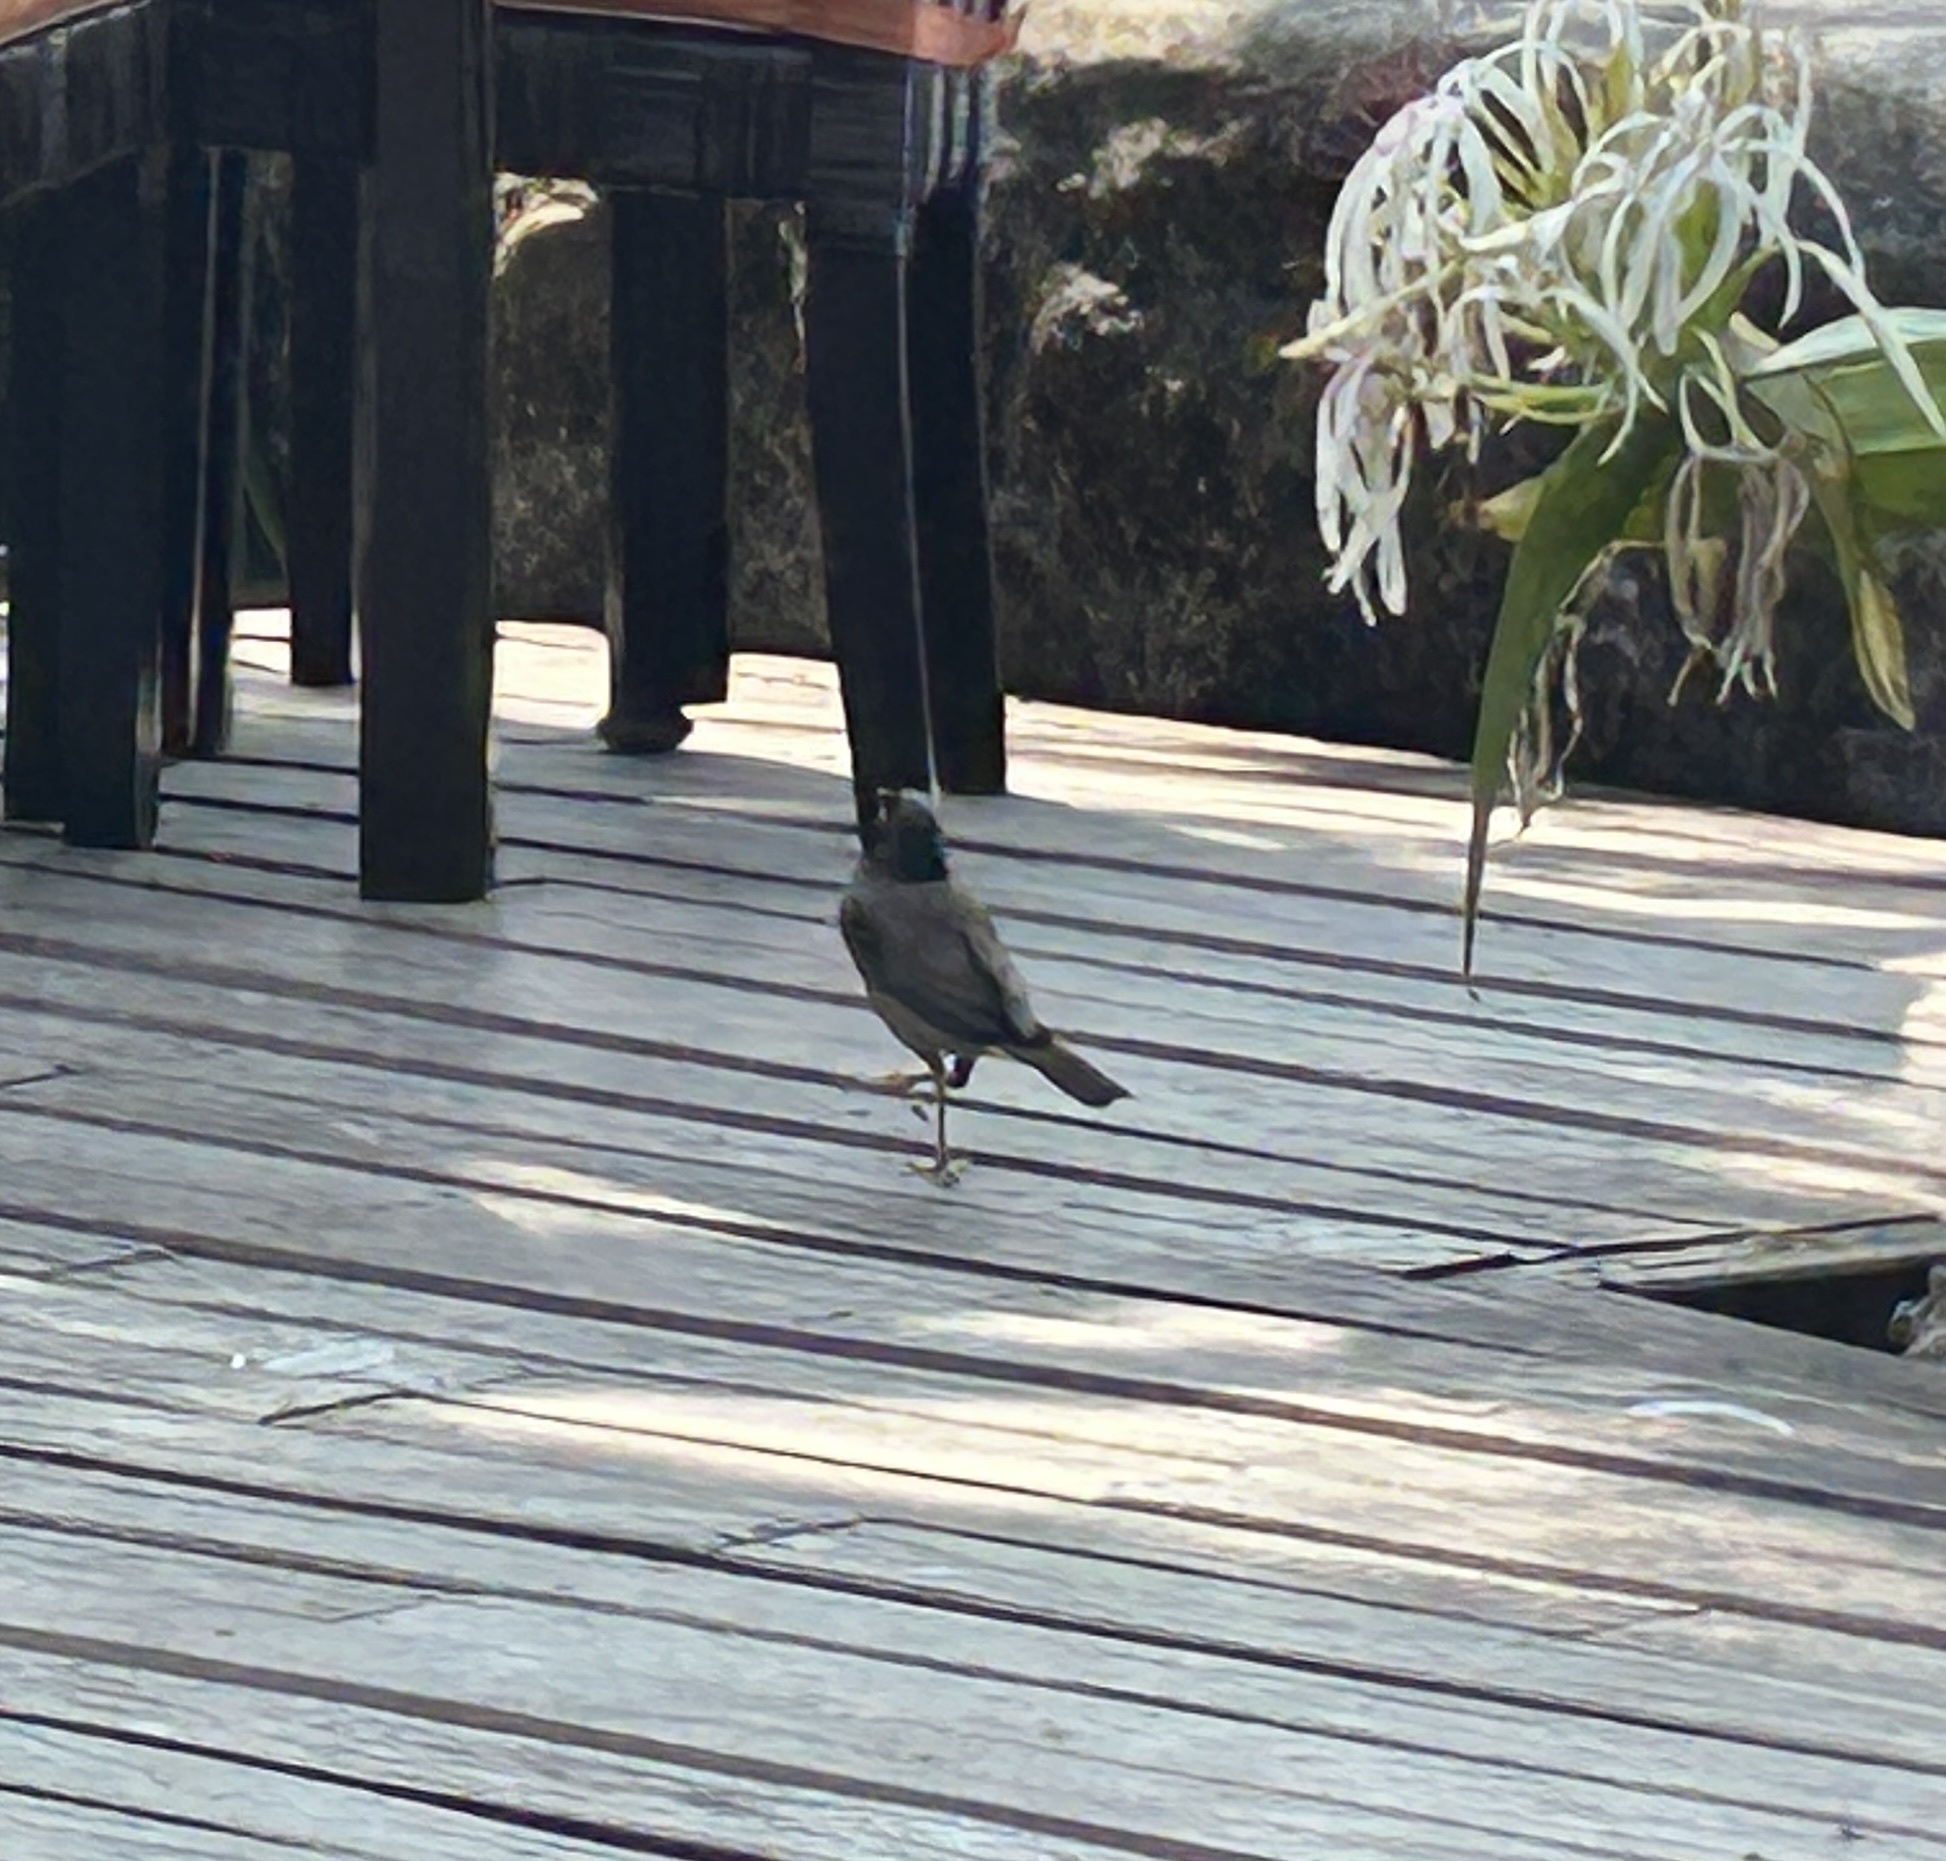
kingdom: Animalia
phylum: Chordata
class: Aves
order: Passeriformes
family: Sturnidae
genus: Acridotheres
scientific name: Acridotheres tristis
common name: Common myna
